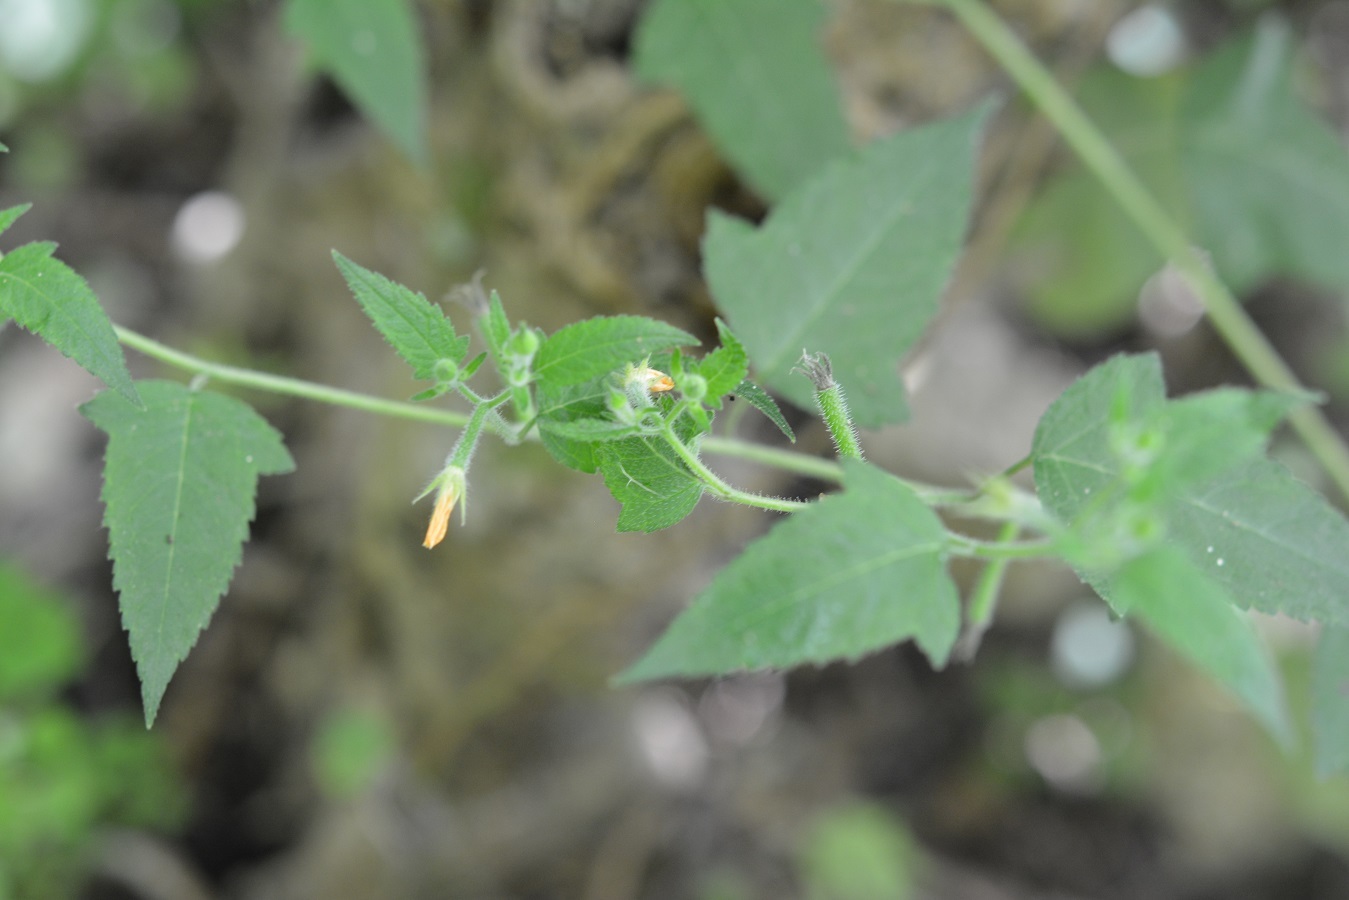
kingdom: Plantae
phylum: Tracheophyta
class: Magnoliopsida
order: Cornales
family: Loasaceae
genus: Mentzelia
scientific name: Mentzelia aspera
